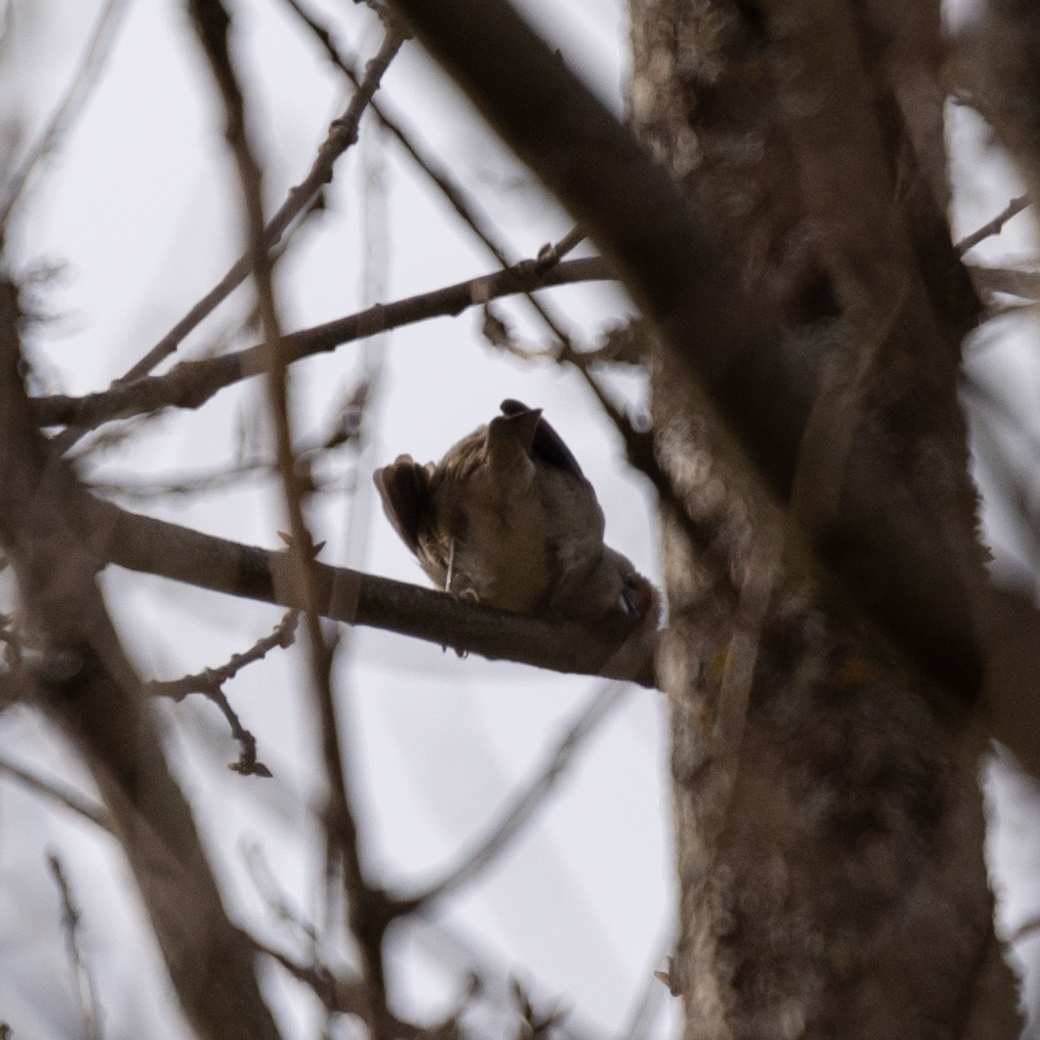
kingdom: Animalia
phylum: Chordata
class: Aves
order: Passeriformes
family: Sylviidae
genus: Sylvia
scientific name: Sylvia atricapilla
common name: Eurasian blackcap
